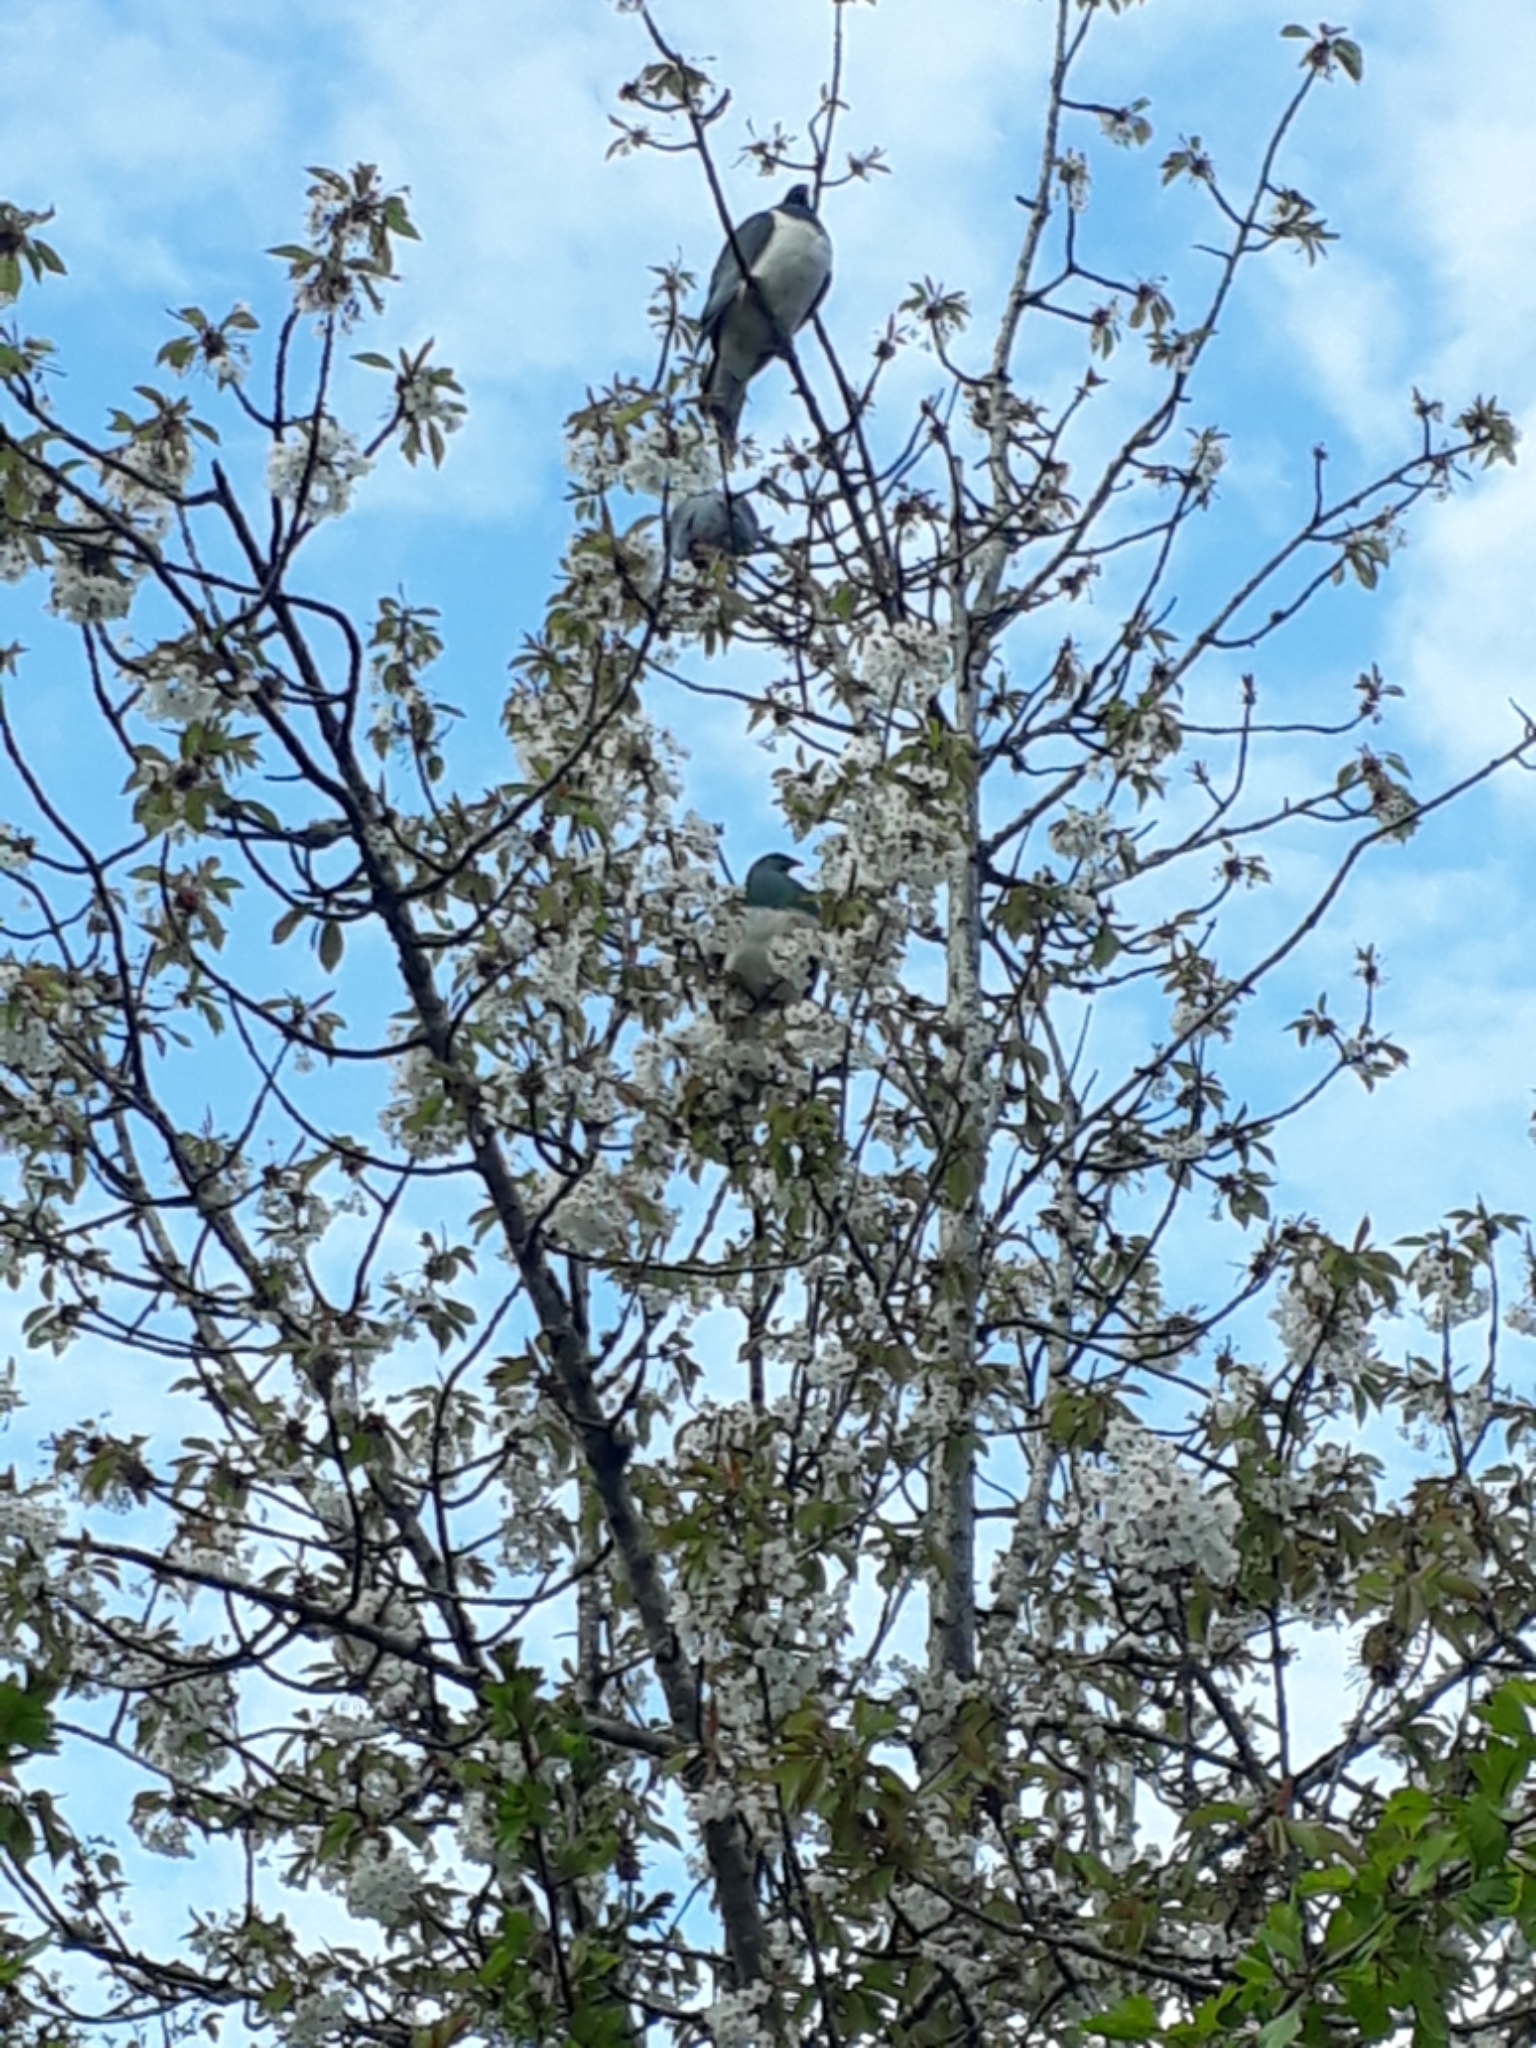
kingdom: Animalia
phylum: Chordata
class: Aves
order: Columbiformes
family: Columbidae
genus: Hemiphaga
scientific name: Hemiphaga novaeseelandiae
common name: New zealand pigeon
